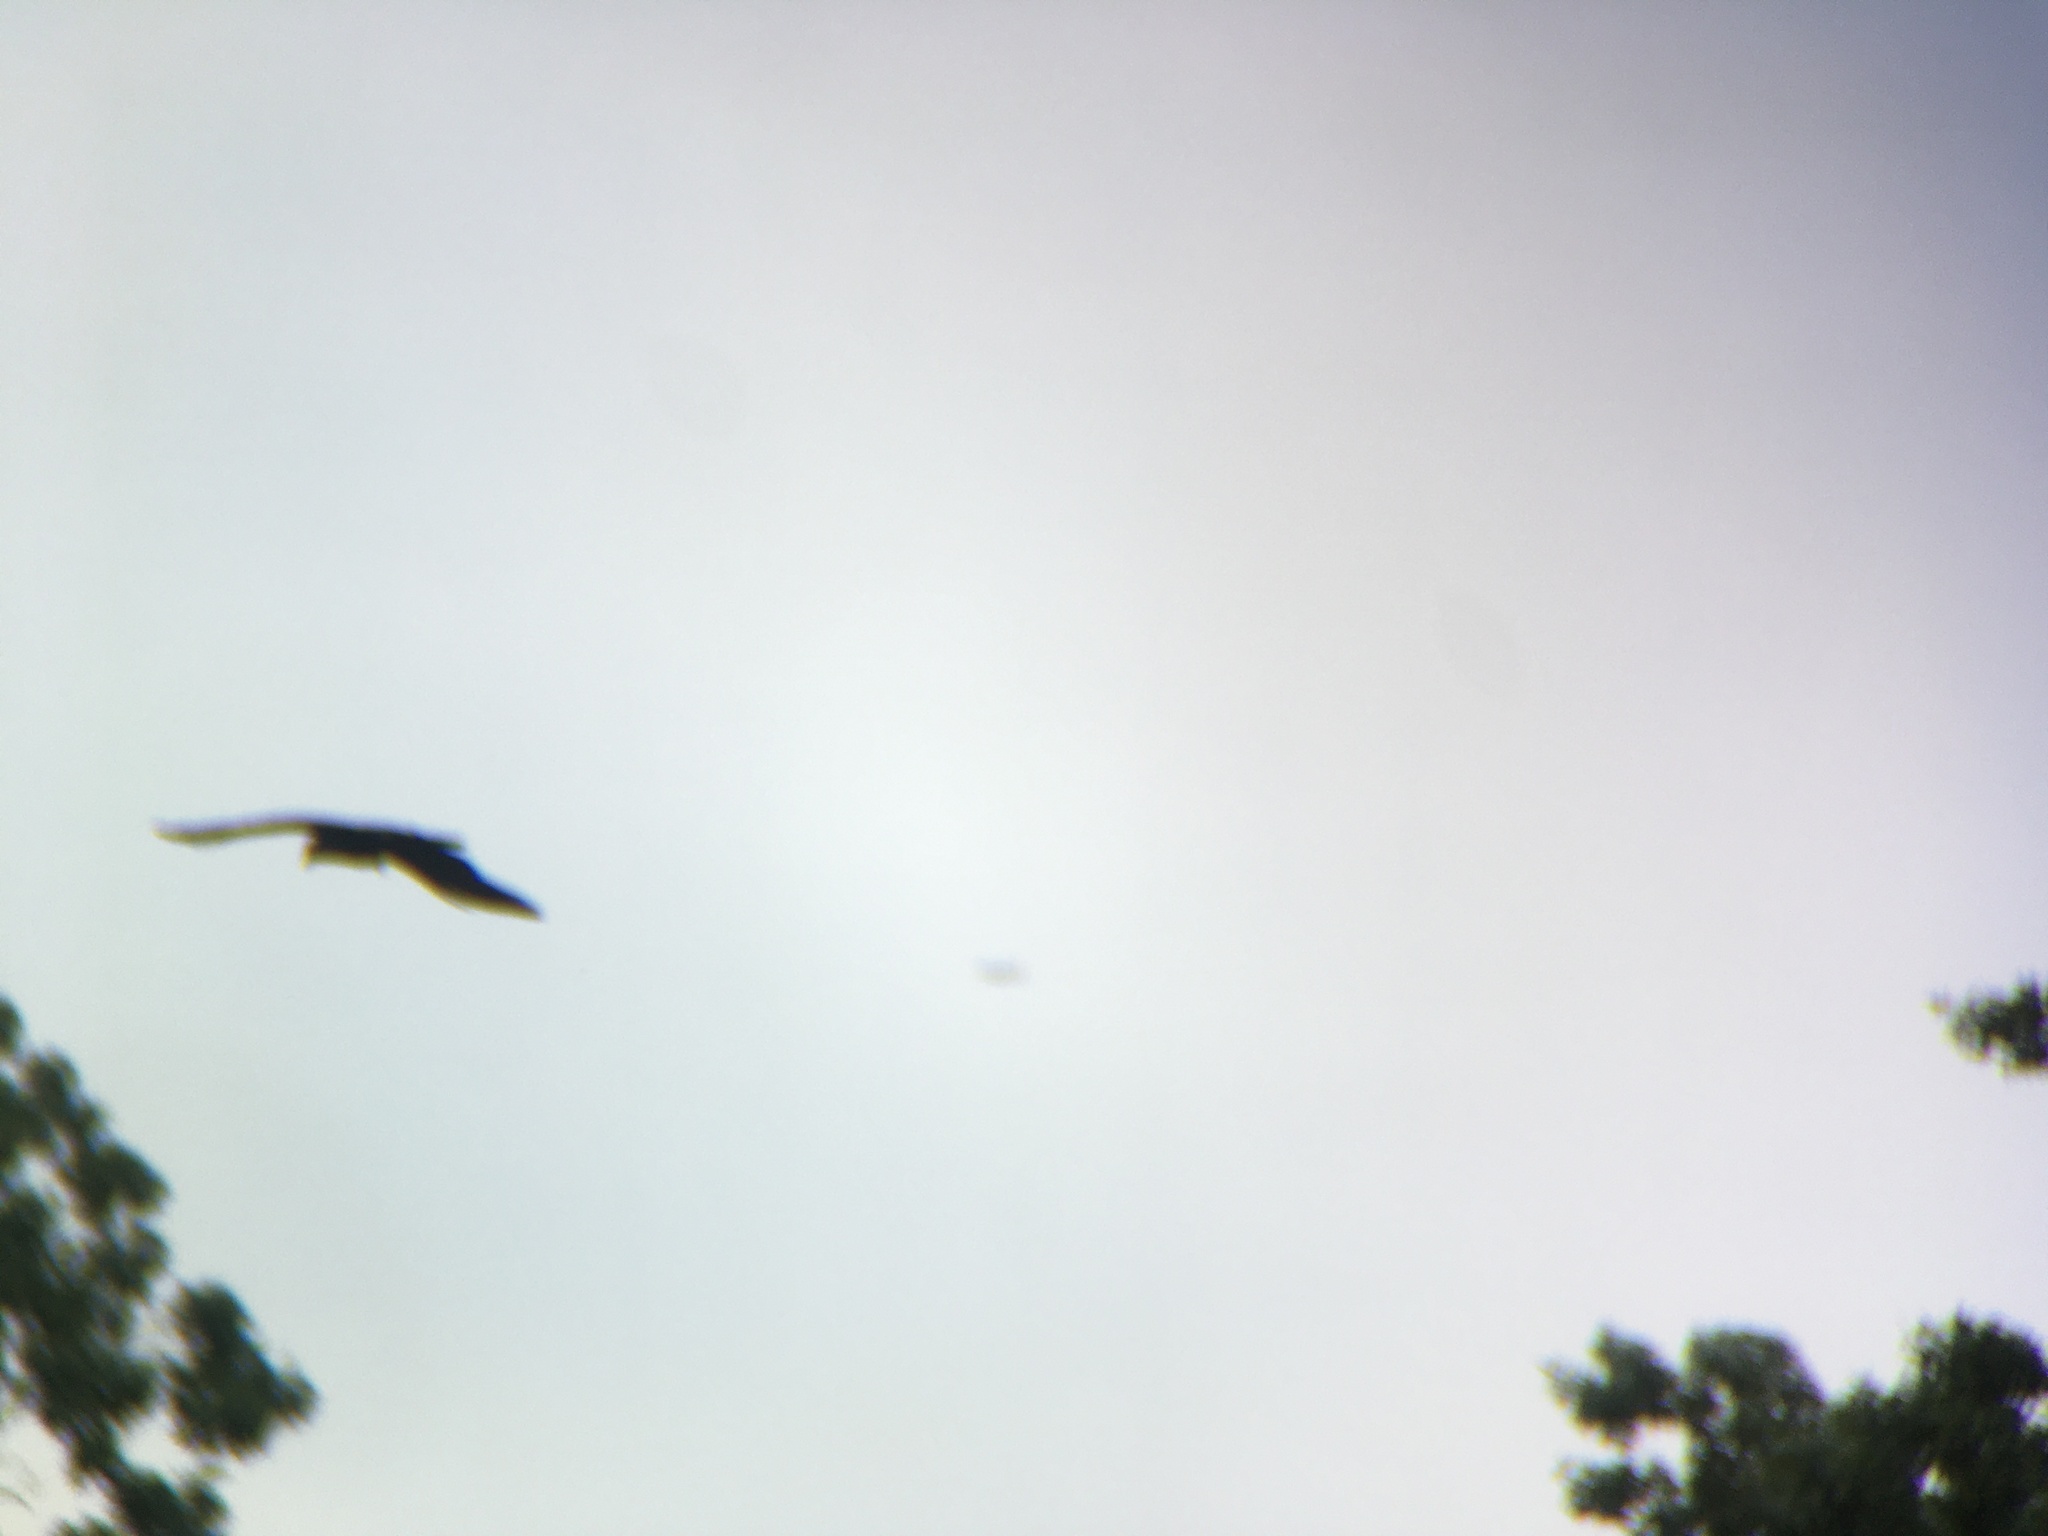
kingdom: Animalia
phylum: Chordata
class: Aves
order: Passeriformes
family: Corvidae
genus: Corvus
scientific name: Corvus brachyrhynchos
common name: American crow
